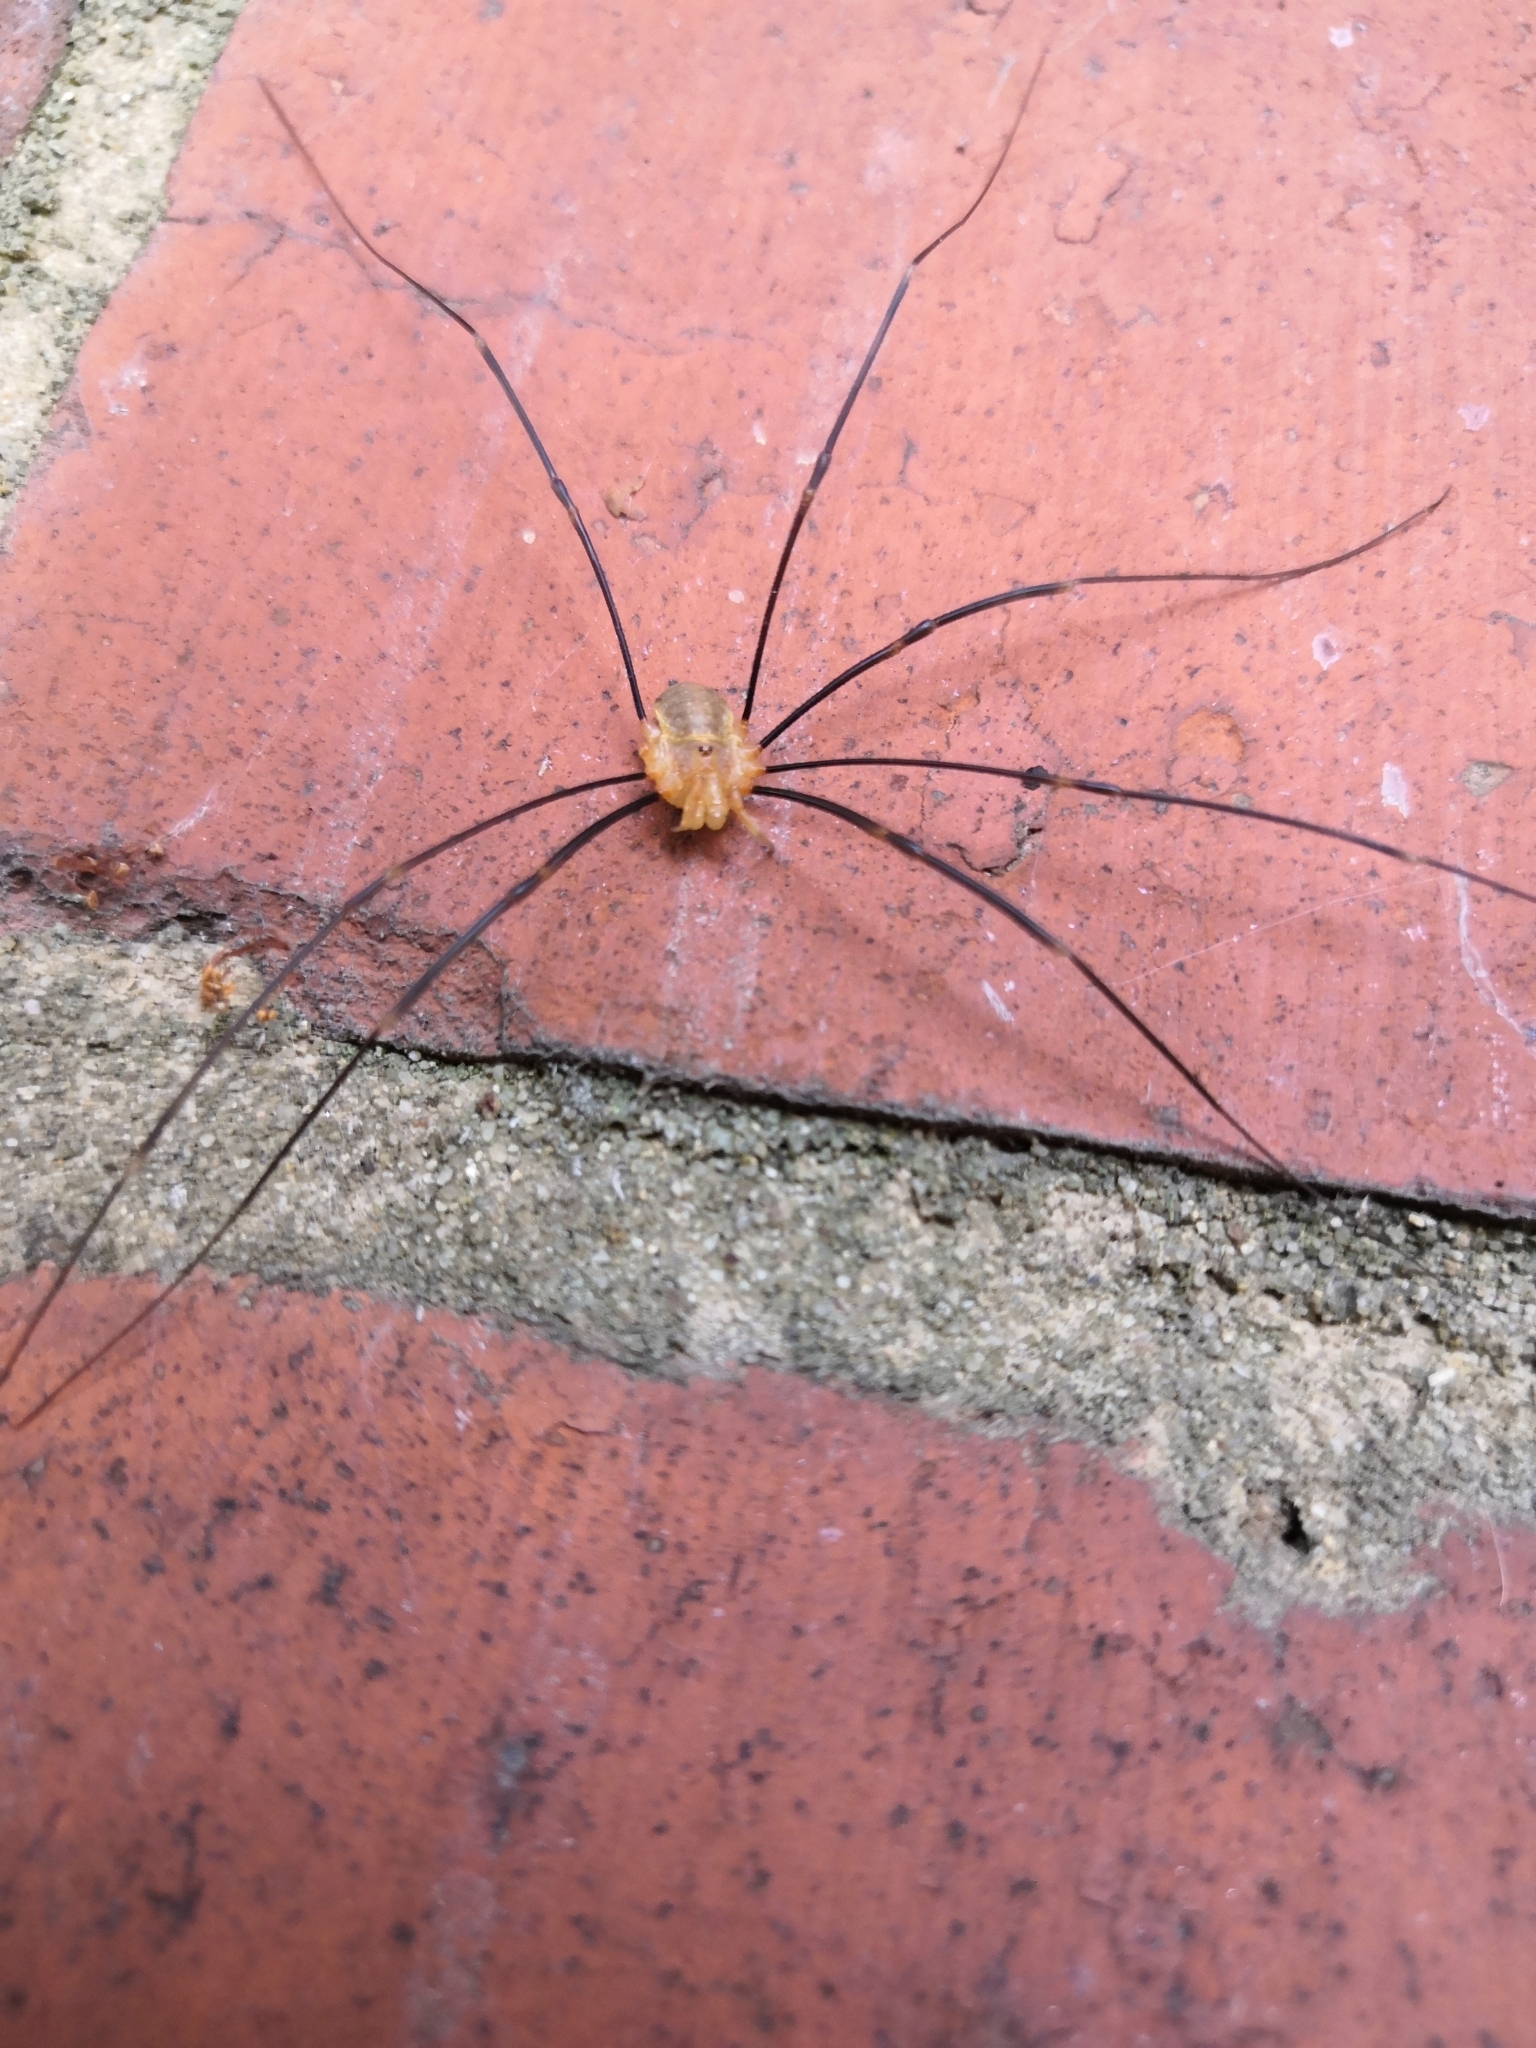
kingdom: Animalia
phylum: Arthropoda
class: Arachnida
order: Opiliones
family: Phalangiidae
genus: Opilio
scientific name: Opilio canestrinii
